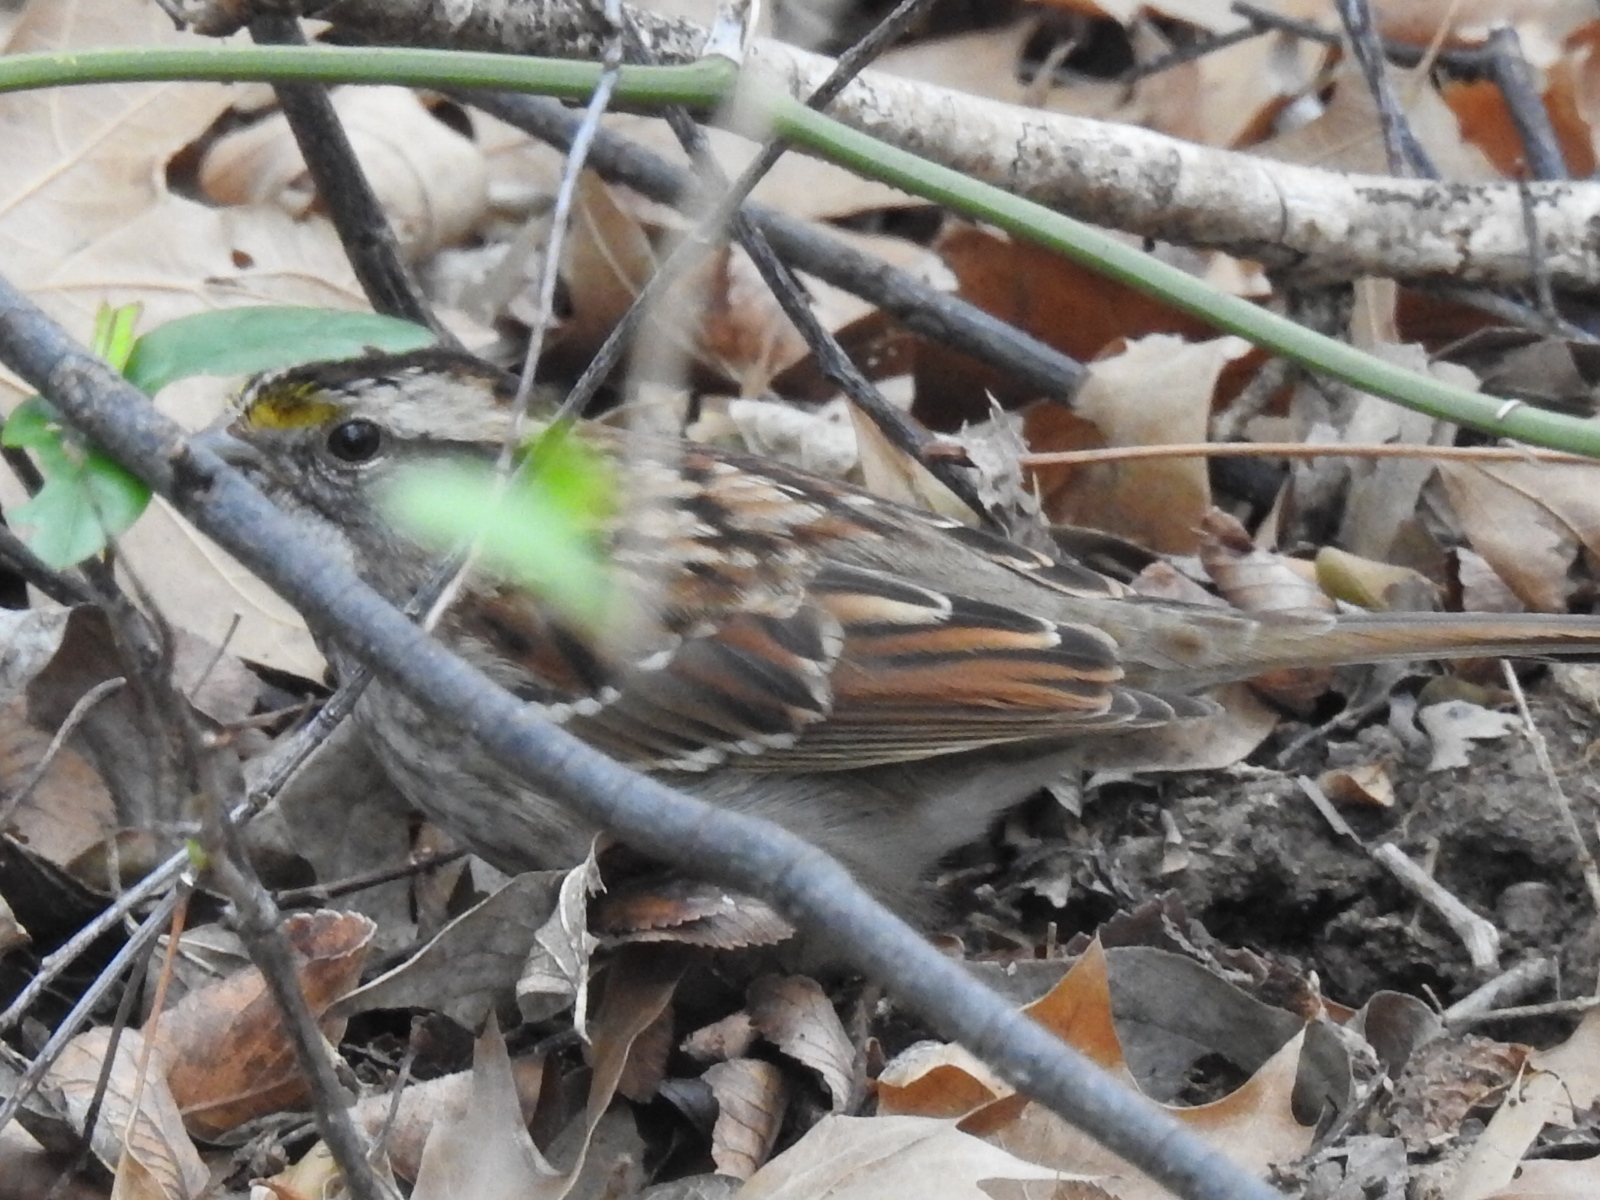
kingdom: Animalia
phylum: Chordata
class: Aves
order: Passeriformes
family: Passerellidae
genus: Zonotrichia
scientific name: Zonotrichia albicollis
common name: White-throated sparrow
